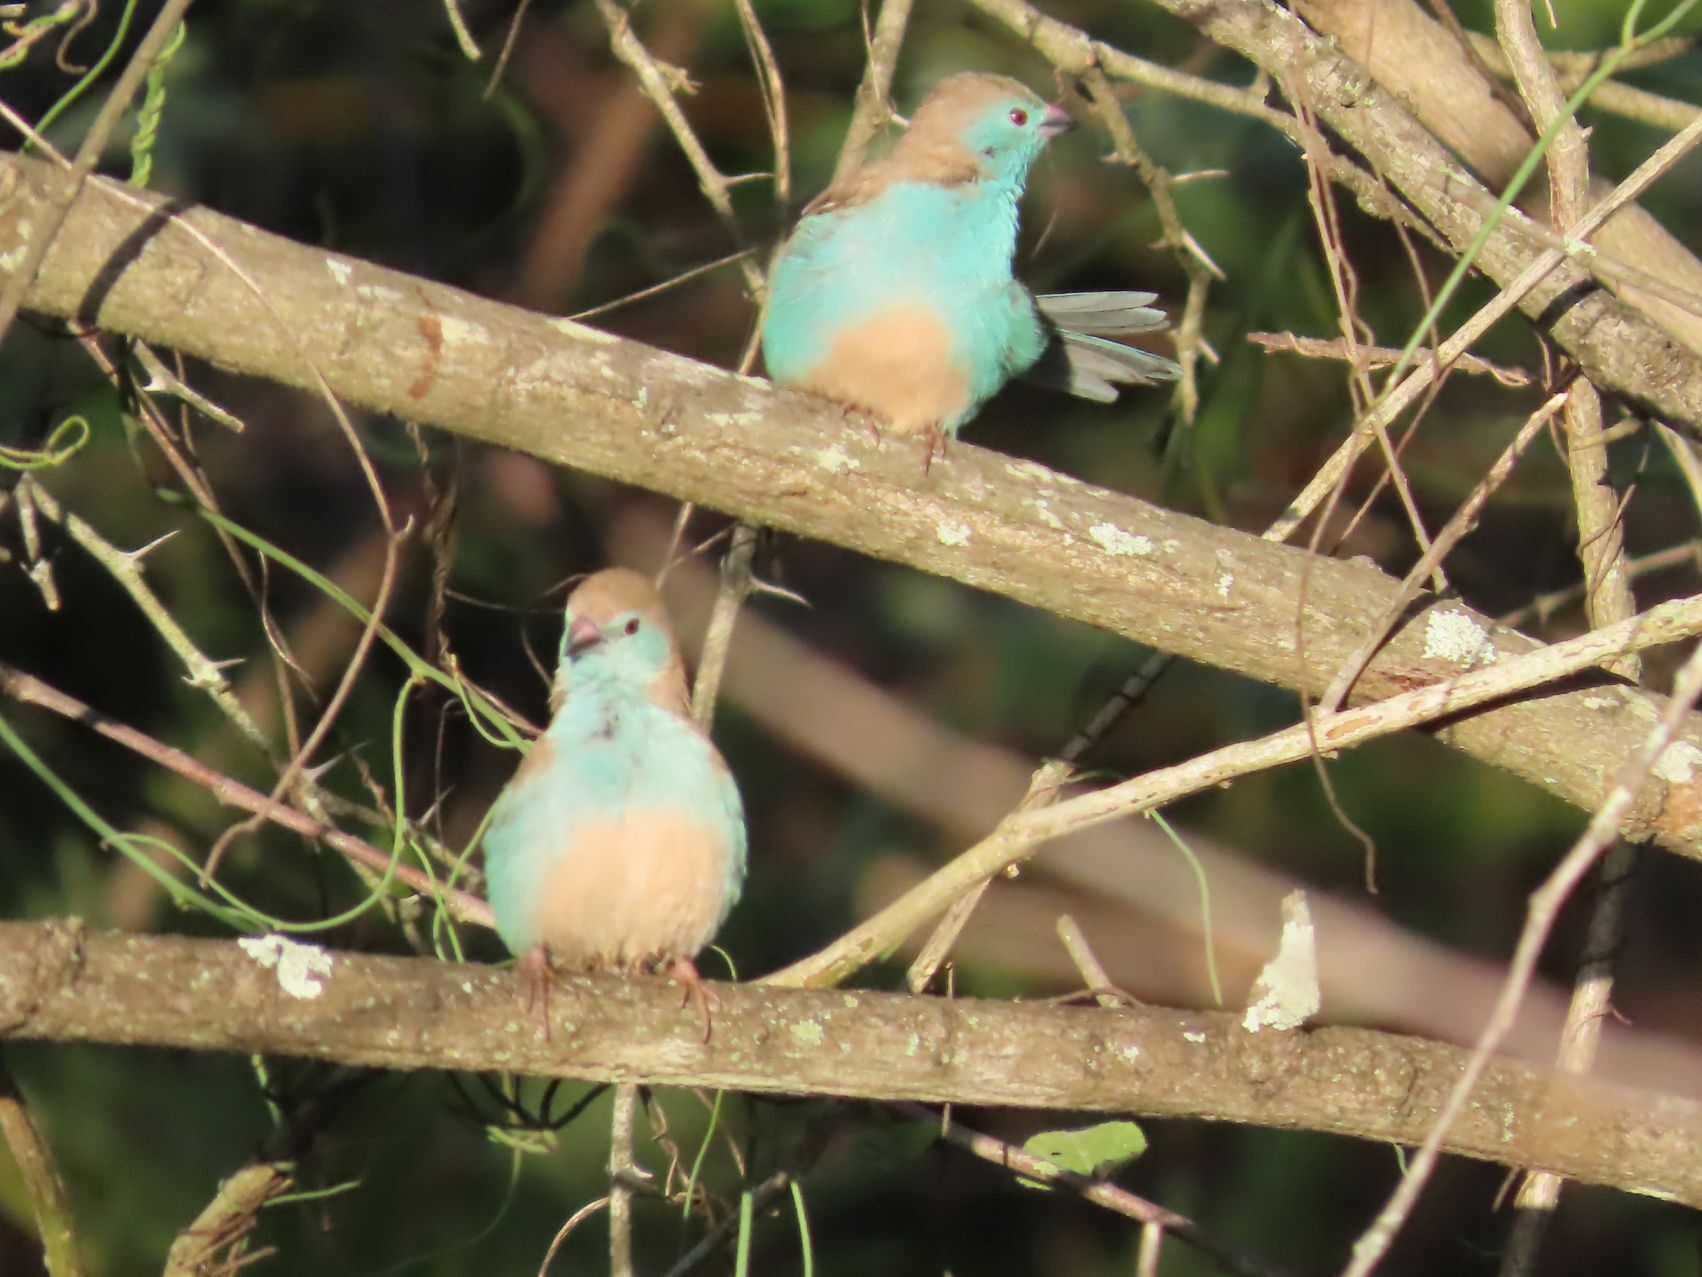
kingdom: Animalia
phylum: Chordata
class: Aves
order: Passeriformes
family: Estrildidae
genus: Uraeginthus
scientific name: Uraeginthus angolensis
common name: Blue waxbill
